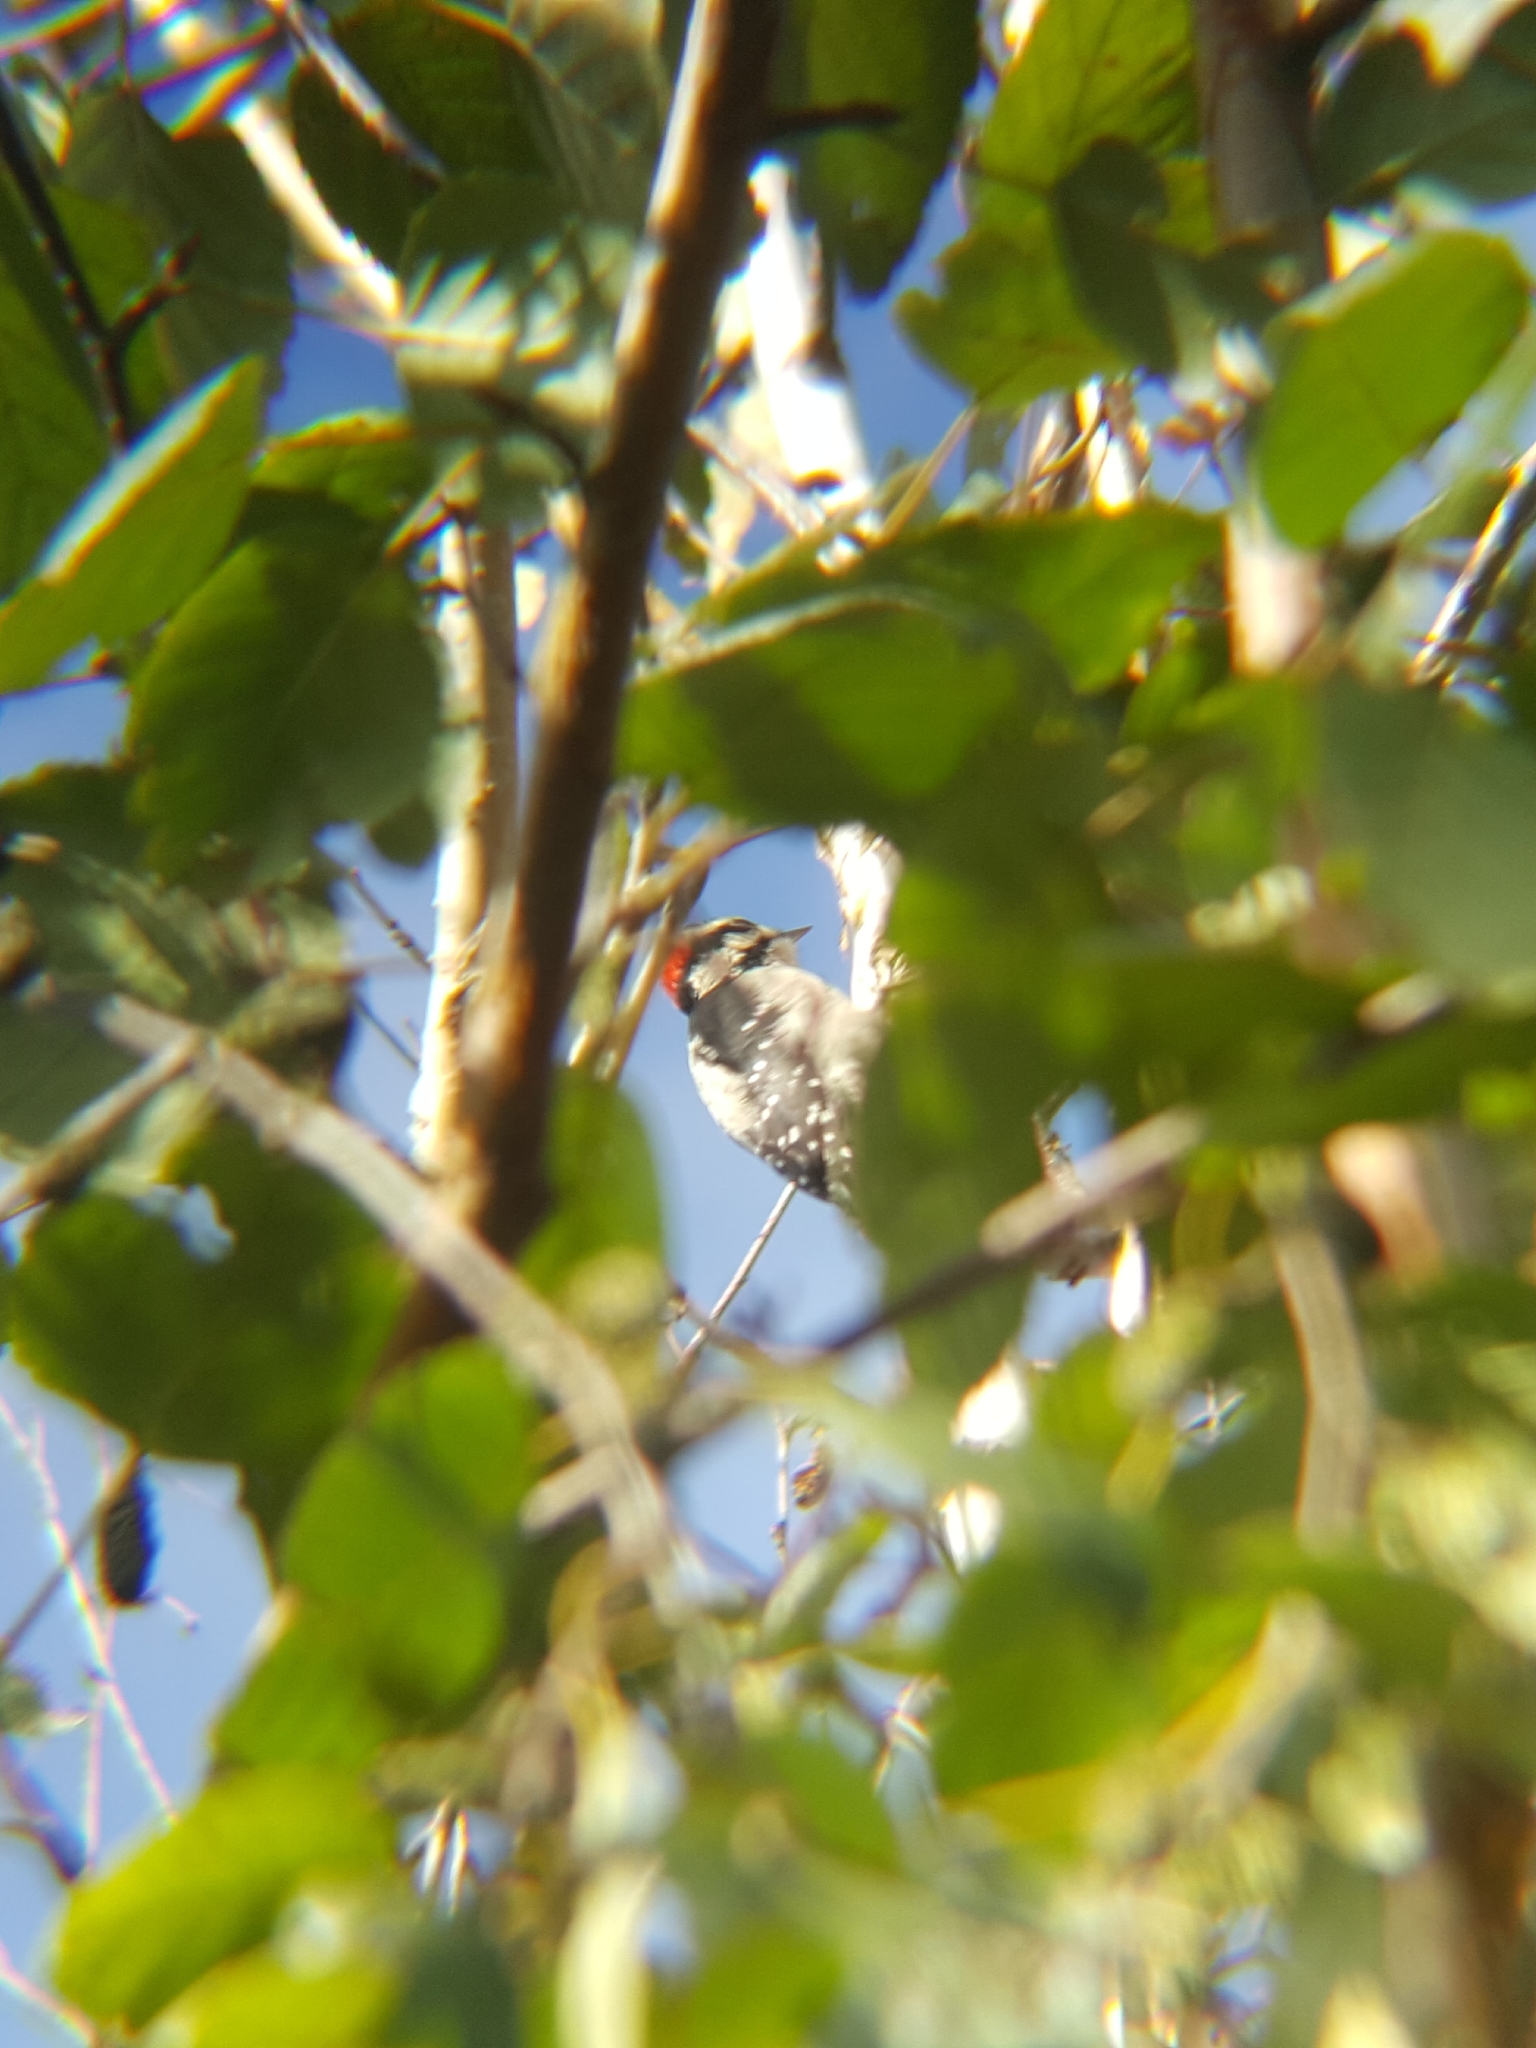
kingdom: Animalia
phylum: Chordata
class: Aves
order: Piciformes
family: Picidae
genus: Dryobates
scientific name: Dryobates pubescens
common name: Downy woodpecker
